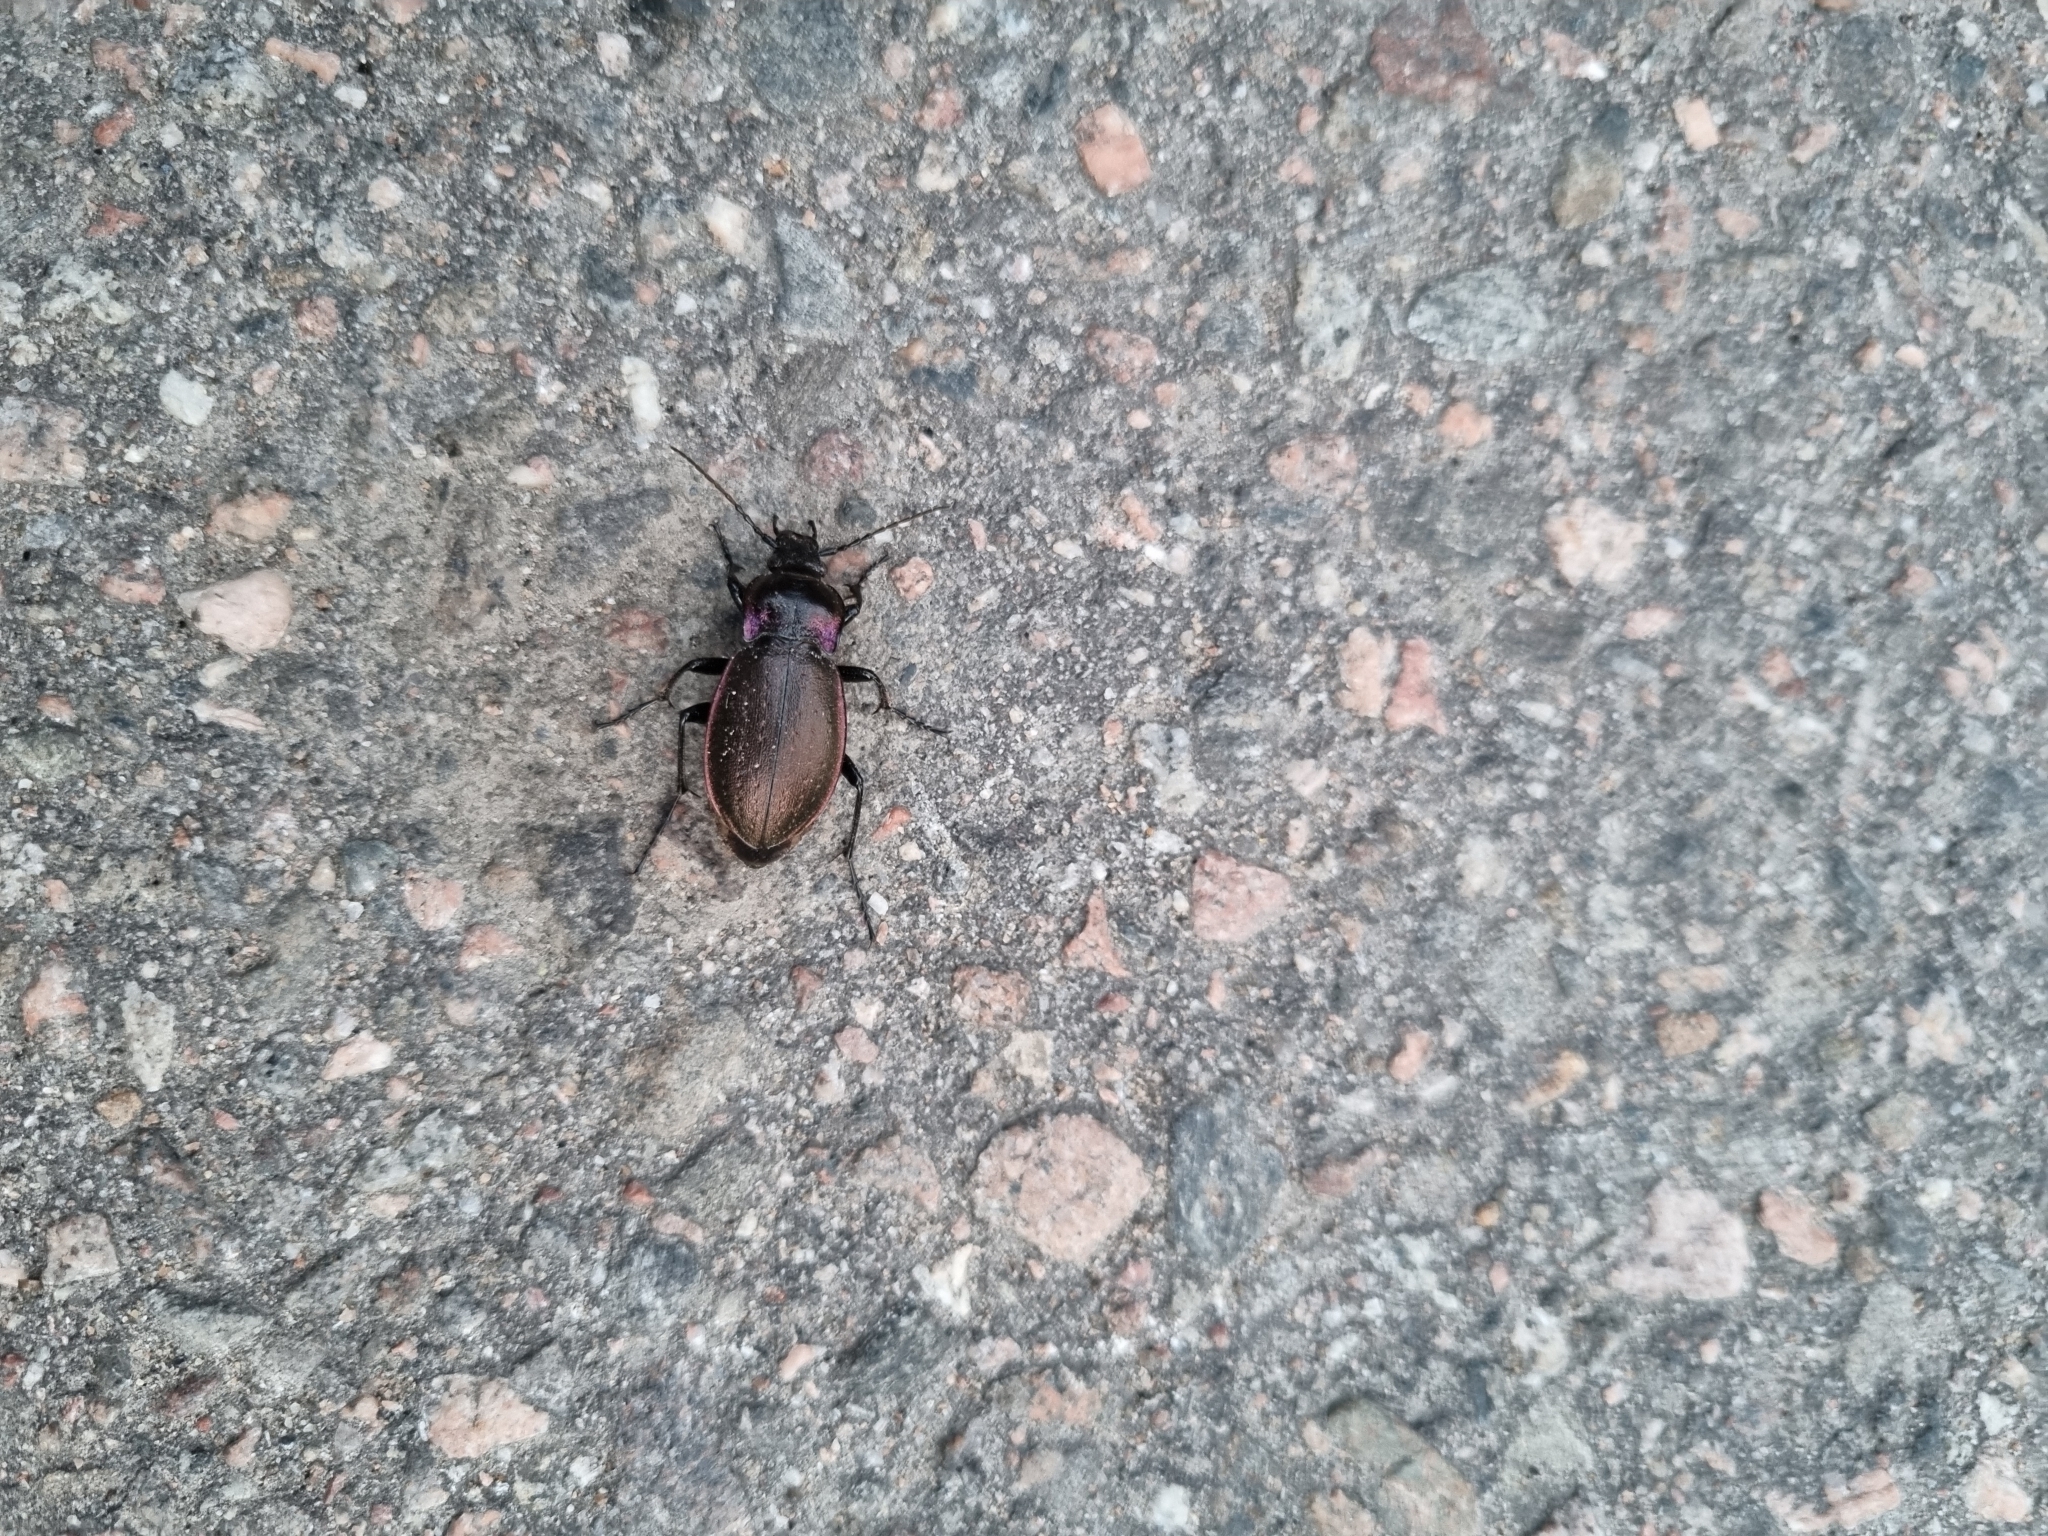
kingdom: Animalia
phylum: Arthropoda
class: Insecta
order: Coleoptera
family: Carabidae
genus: Carabus
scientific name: Carabus nemoralis
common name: European ground beetle
